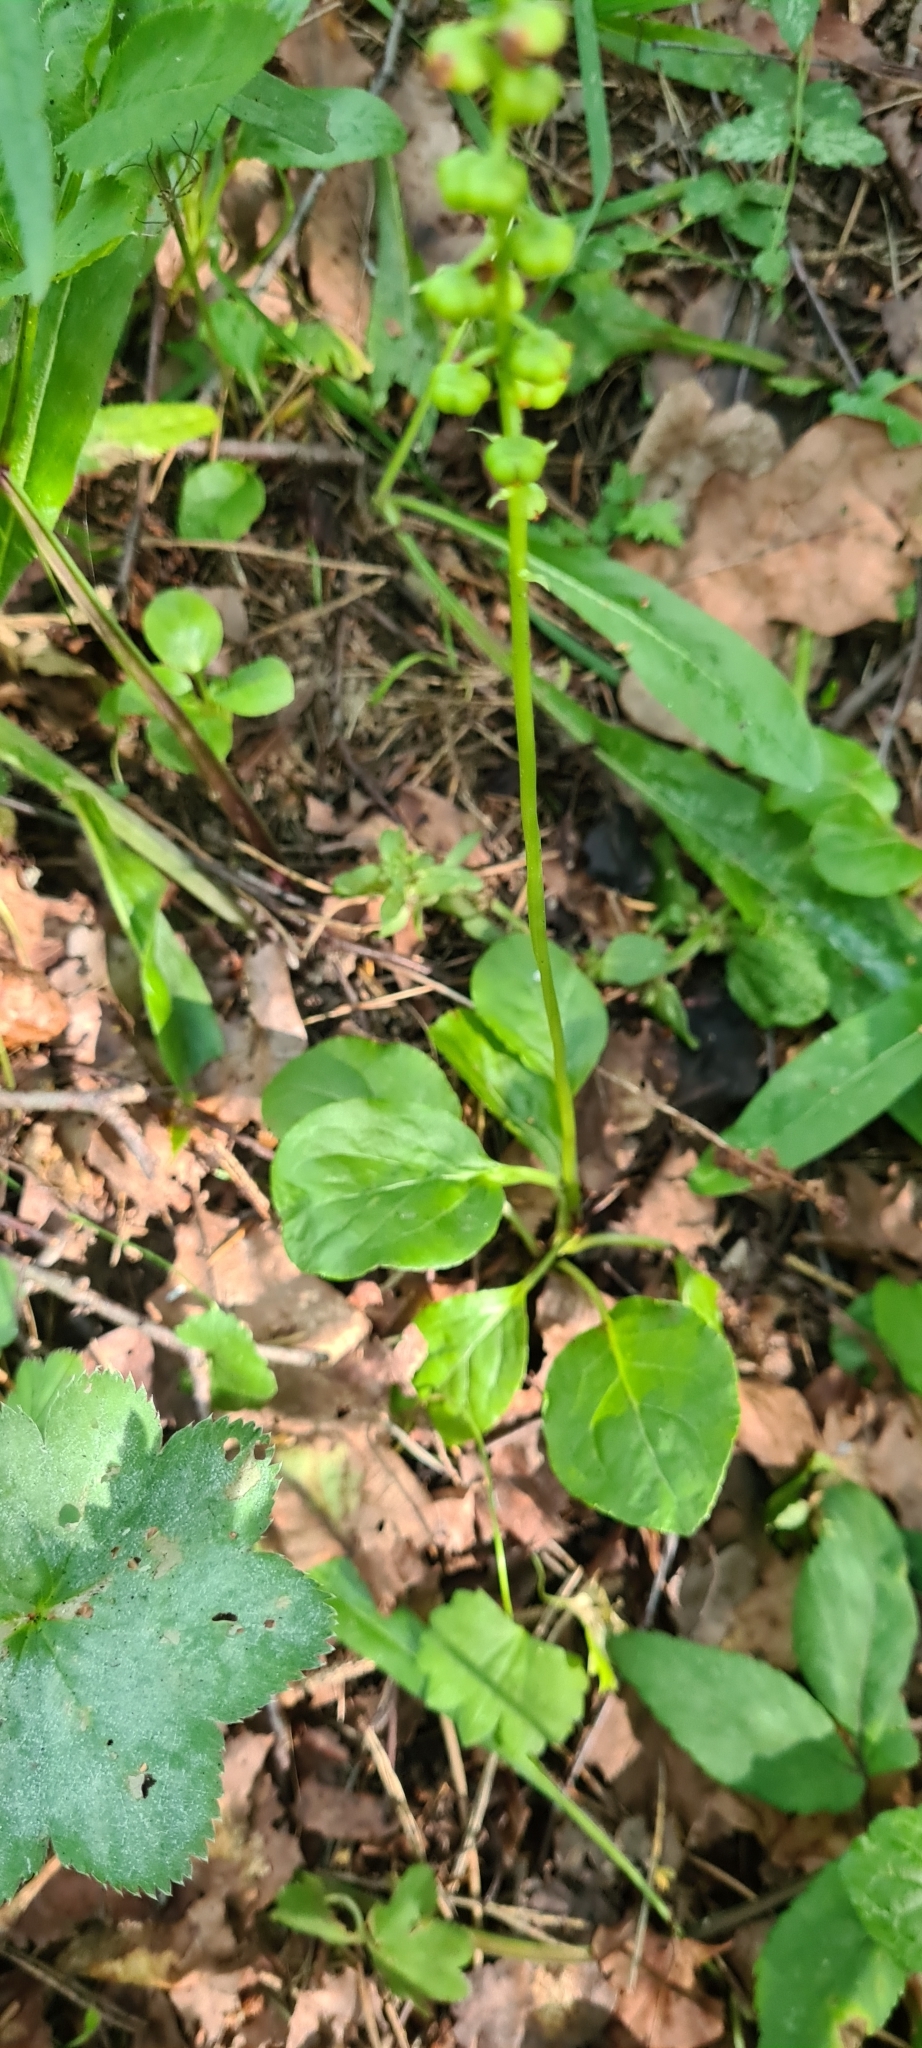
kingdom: Plantae
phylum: Tracheophyta
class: Magnoliopsida
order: Ericales
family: Ericaceae
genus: Pyrola
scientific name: Pyrola minor
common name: Common wintergreen
